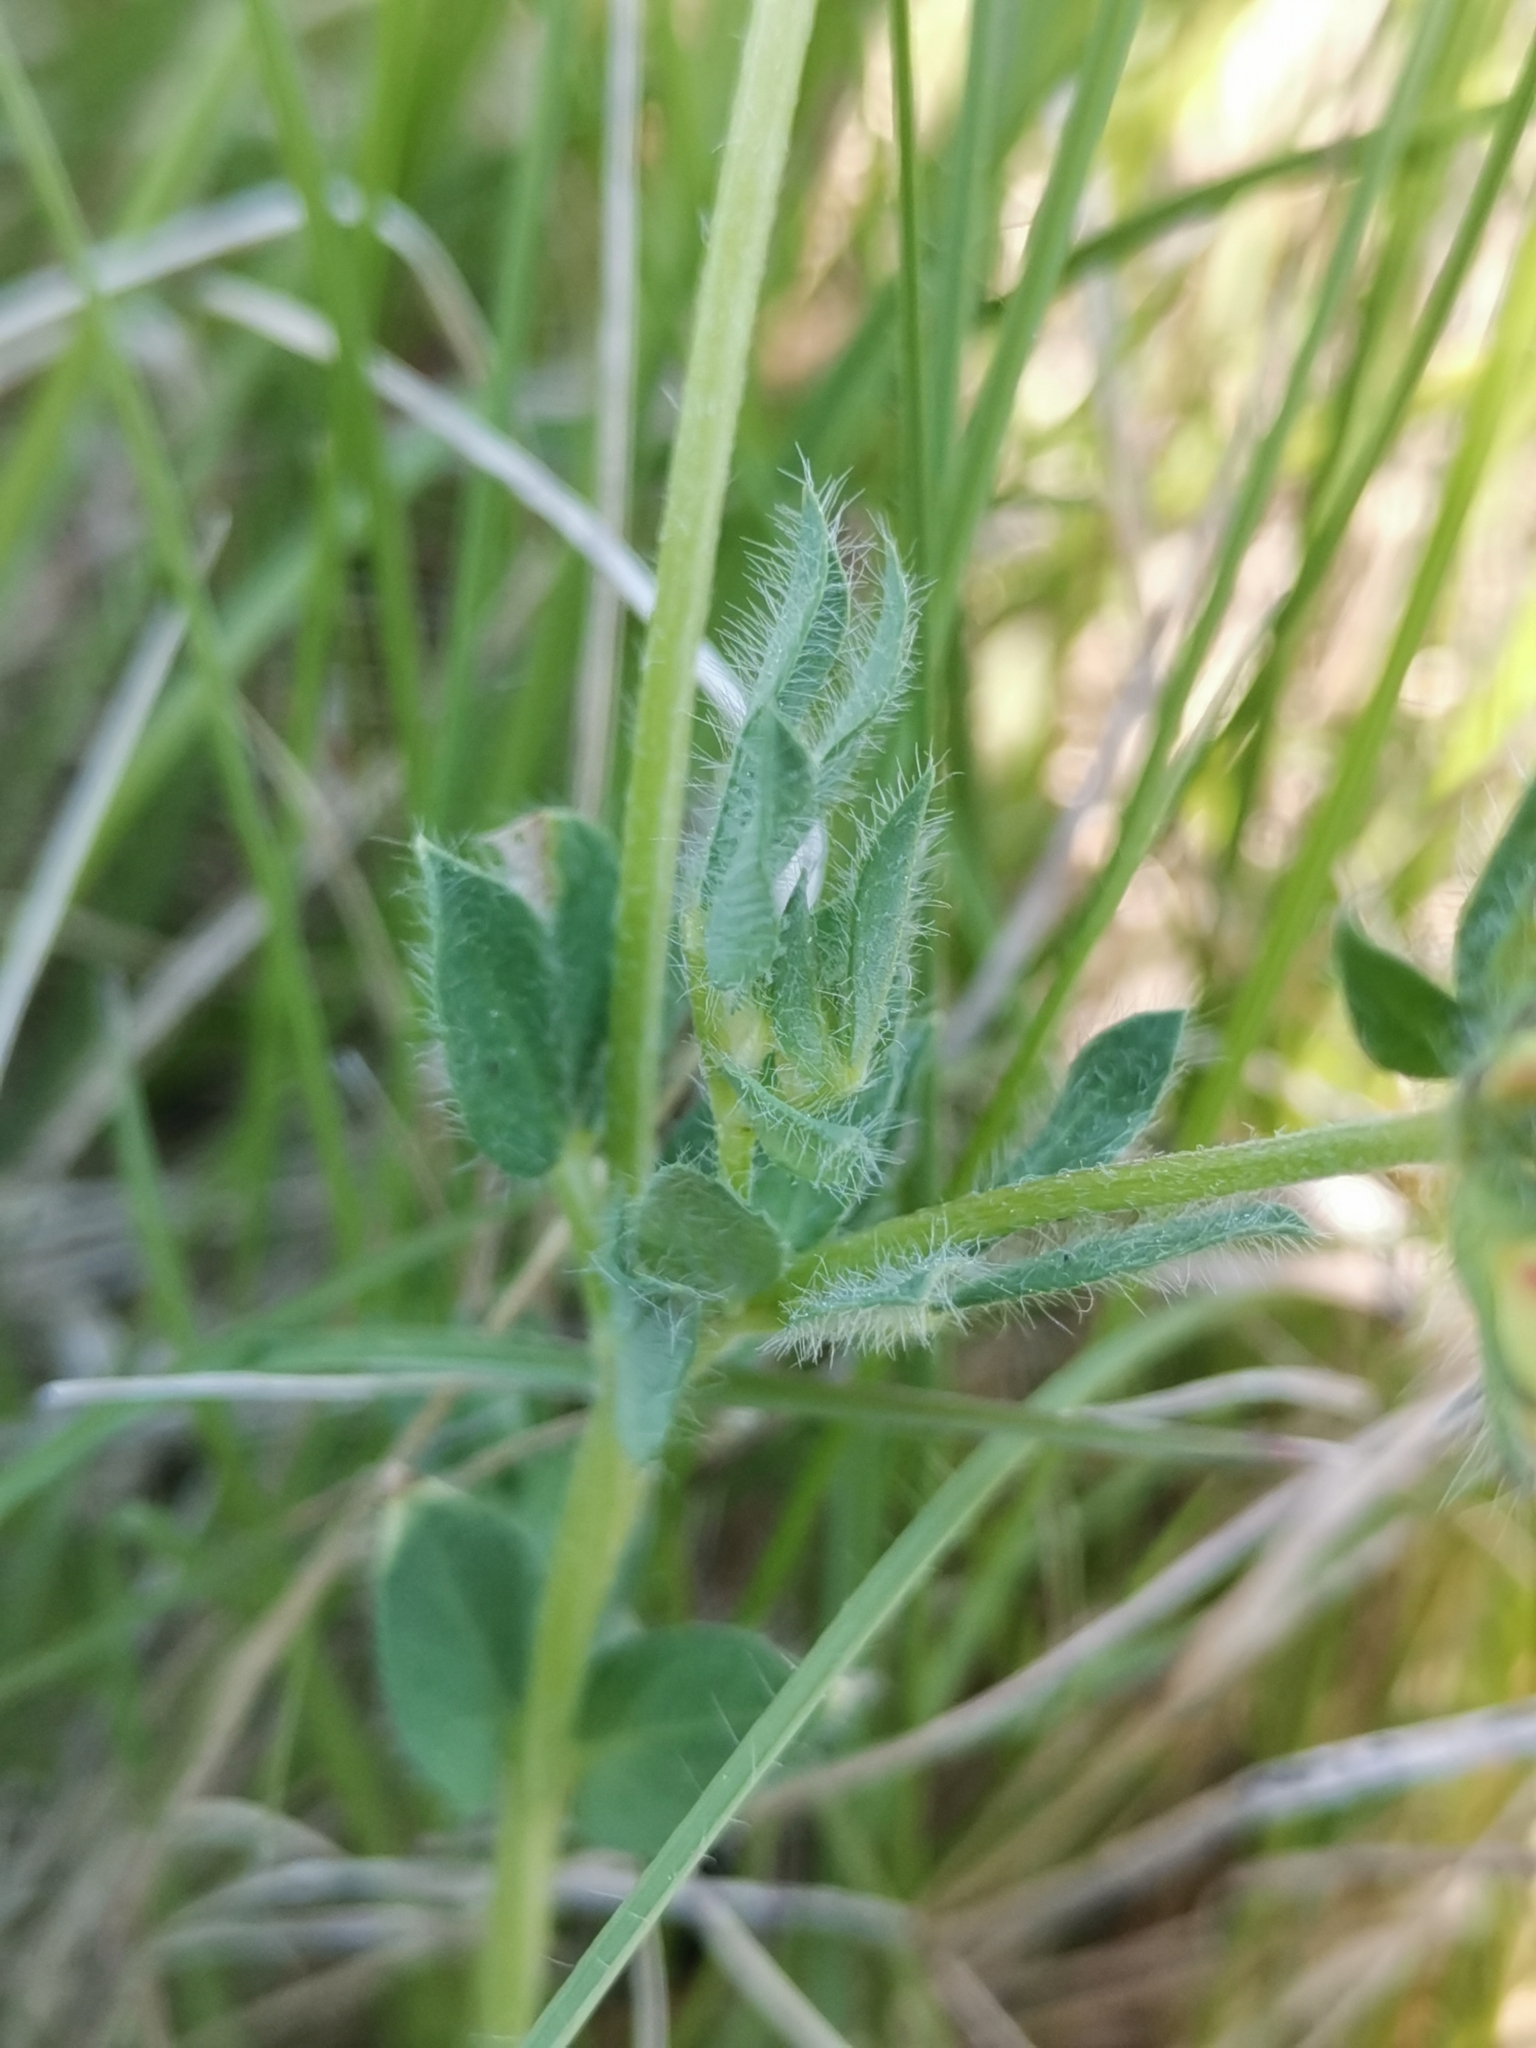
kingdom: Plantae
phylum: Tracheophyta
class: Magnoliopsida
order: Fabales
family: Fabaceae
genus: Lotus
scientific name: Lotus corniculatus
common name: Common bird's-foot-trefoil
